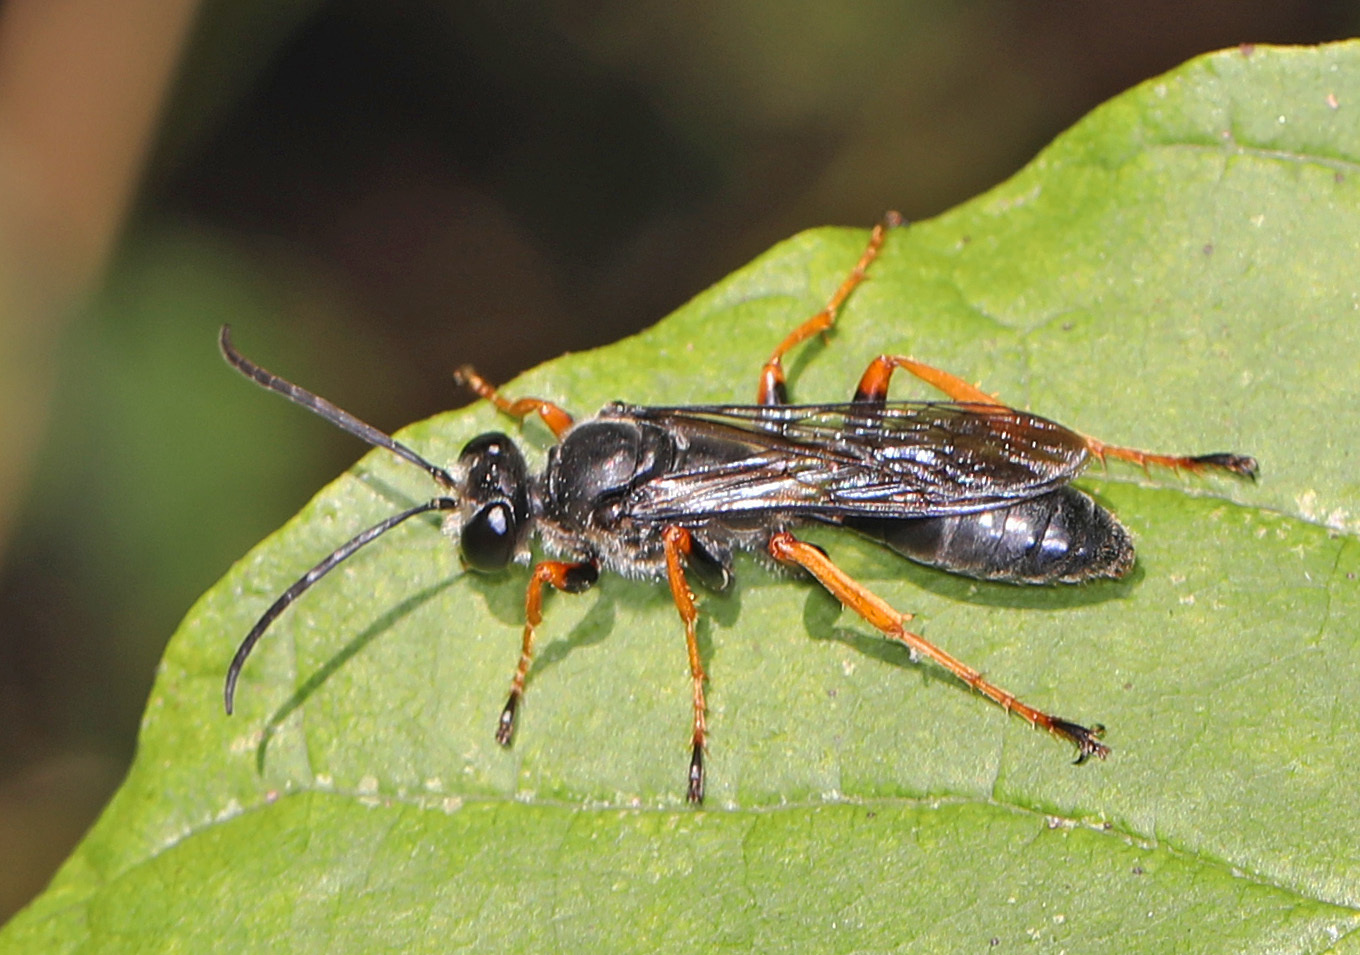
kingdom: Animalia
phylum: Arthropoda
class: Insecta
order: Hymenoptera
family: Sphecidae
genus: Sphex
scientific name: Sphex nudus
